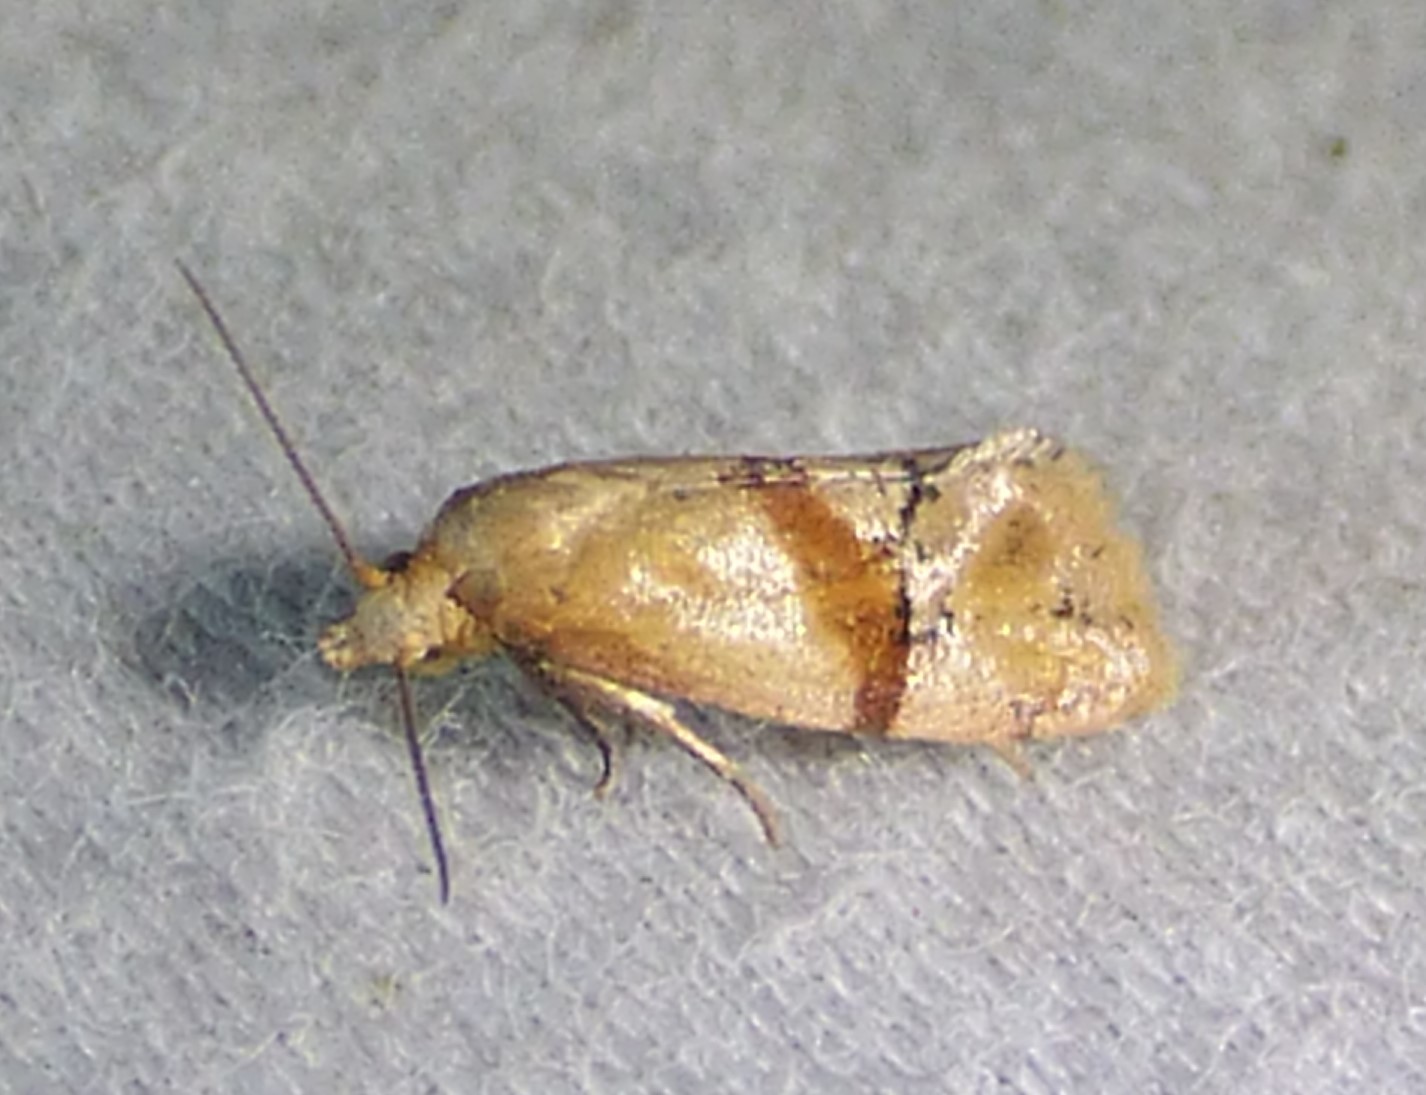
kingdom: Animalia
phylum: Arthropoda
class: Insecta
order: Lepidoptera
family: Tortricidae
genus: Cochylis
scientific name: Cochylis caulocatax
